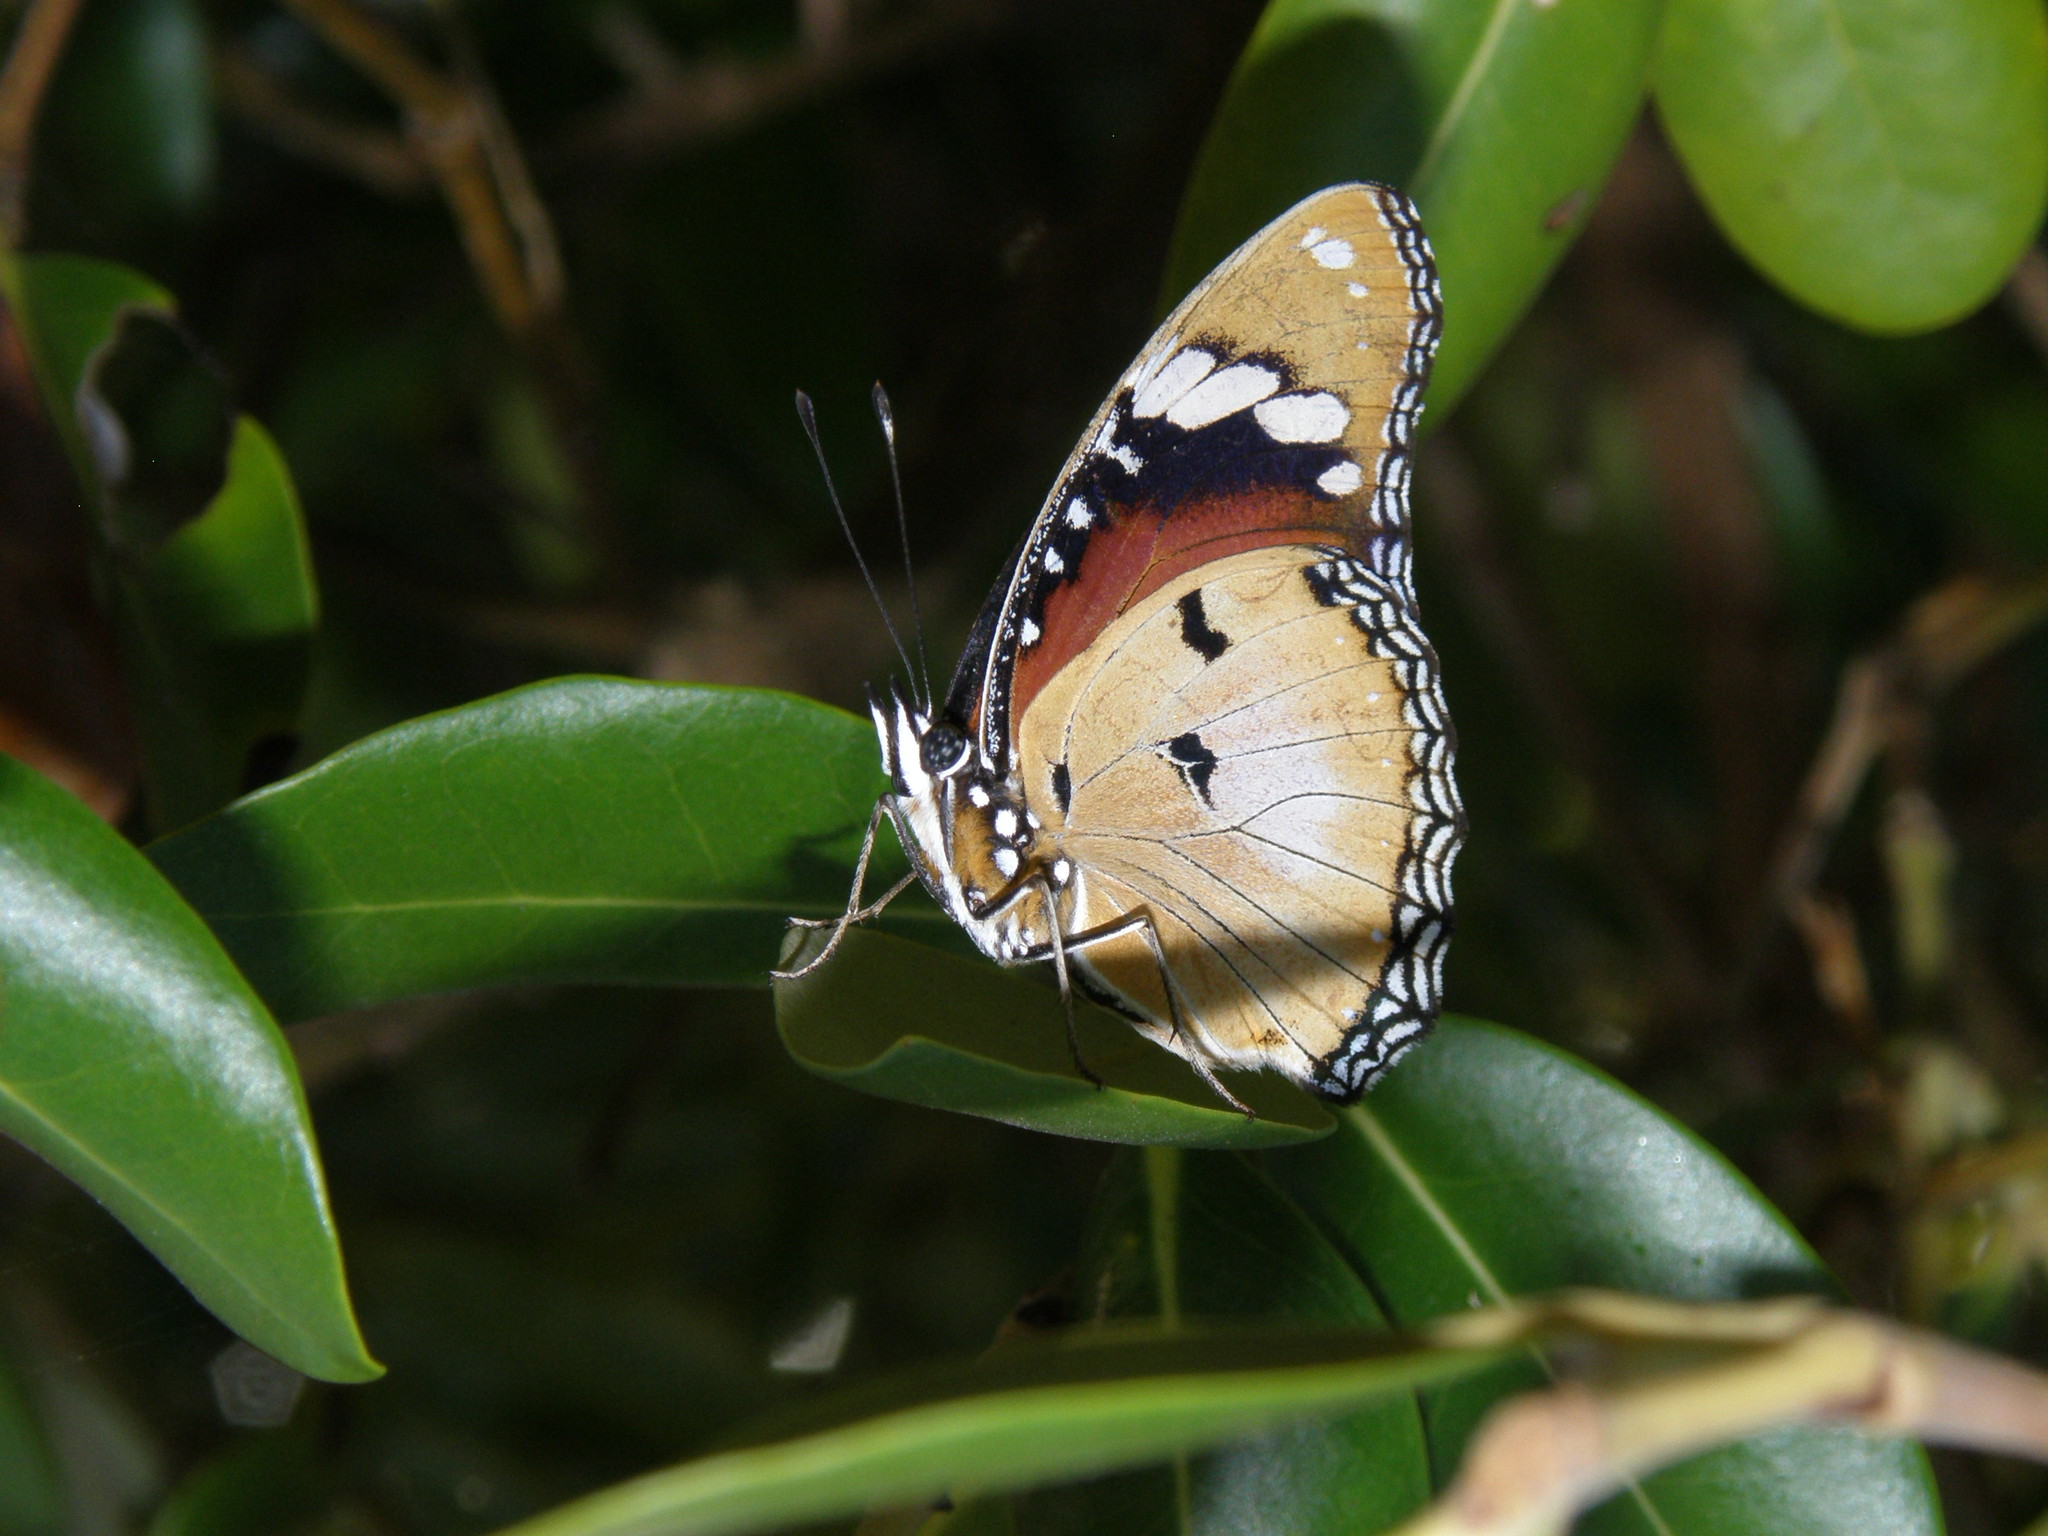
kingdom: Animalia
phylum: Arthropoda
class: Insecta
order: Lepidoptera
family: Nymphalidae
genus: Hypolimnas
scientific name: Hypolimnas misippus
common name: False plain tiger
